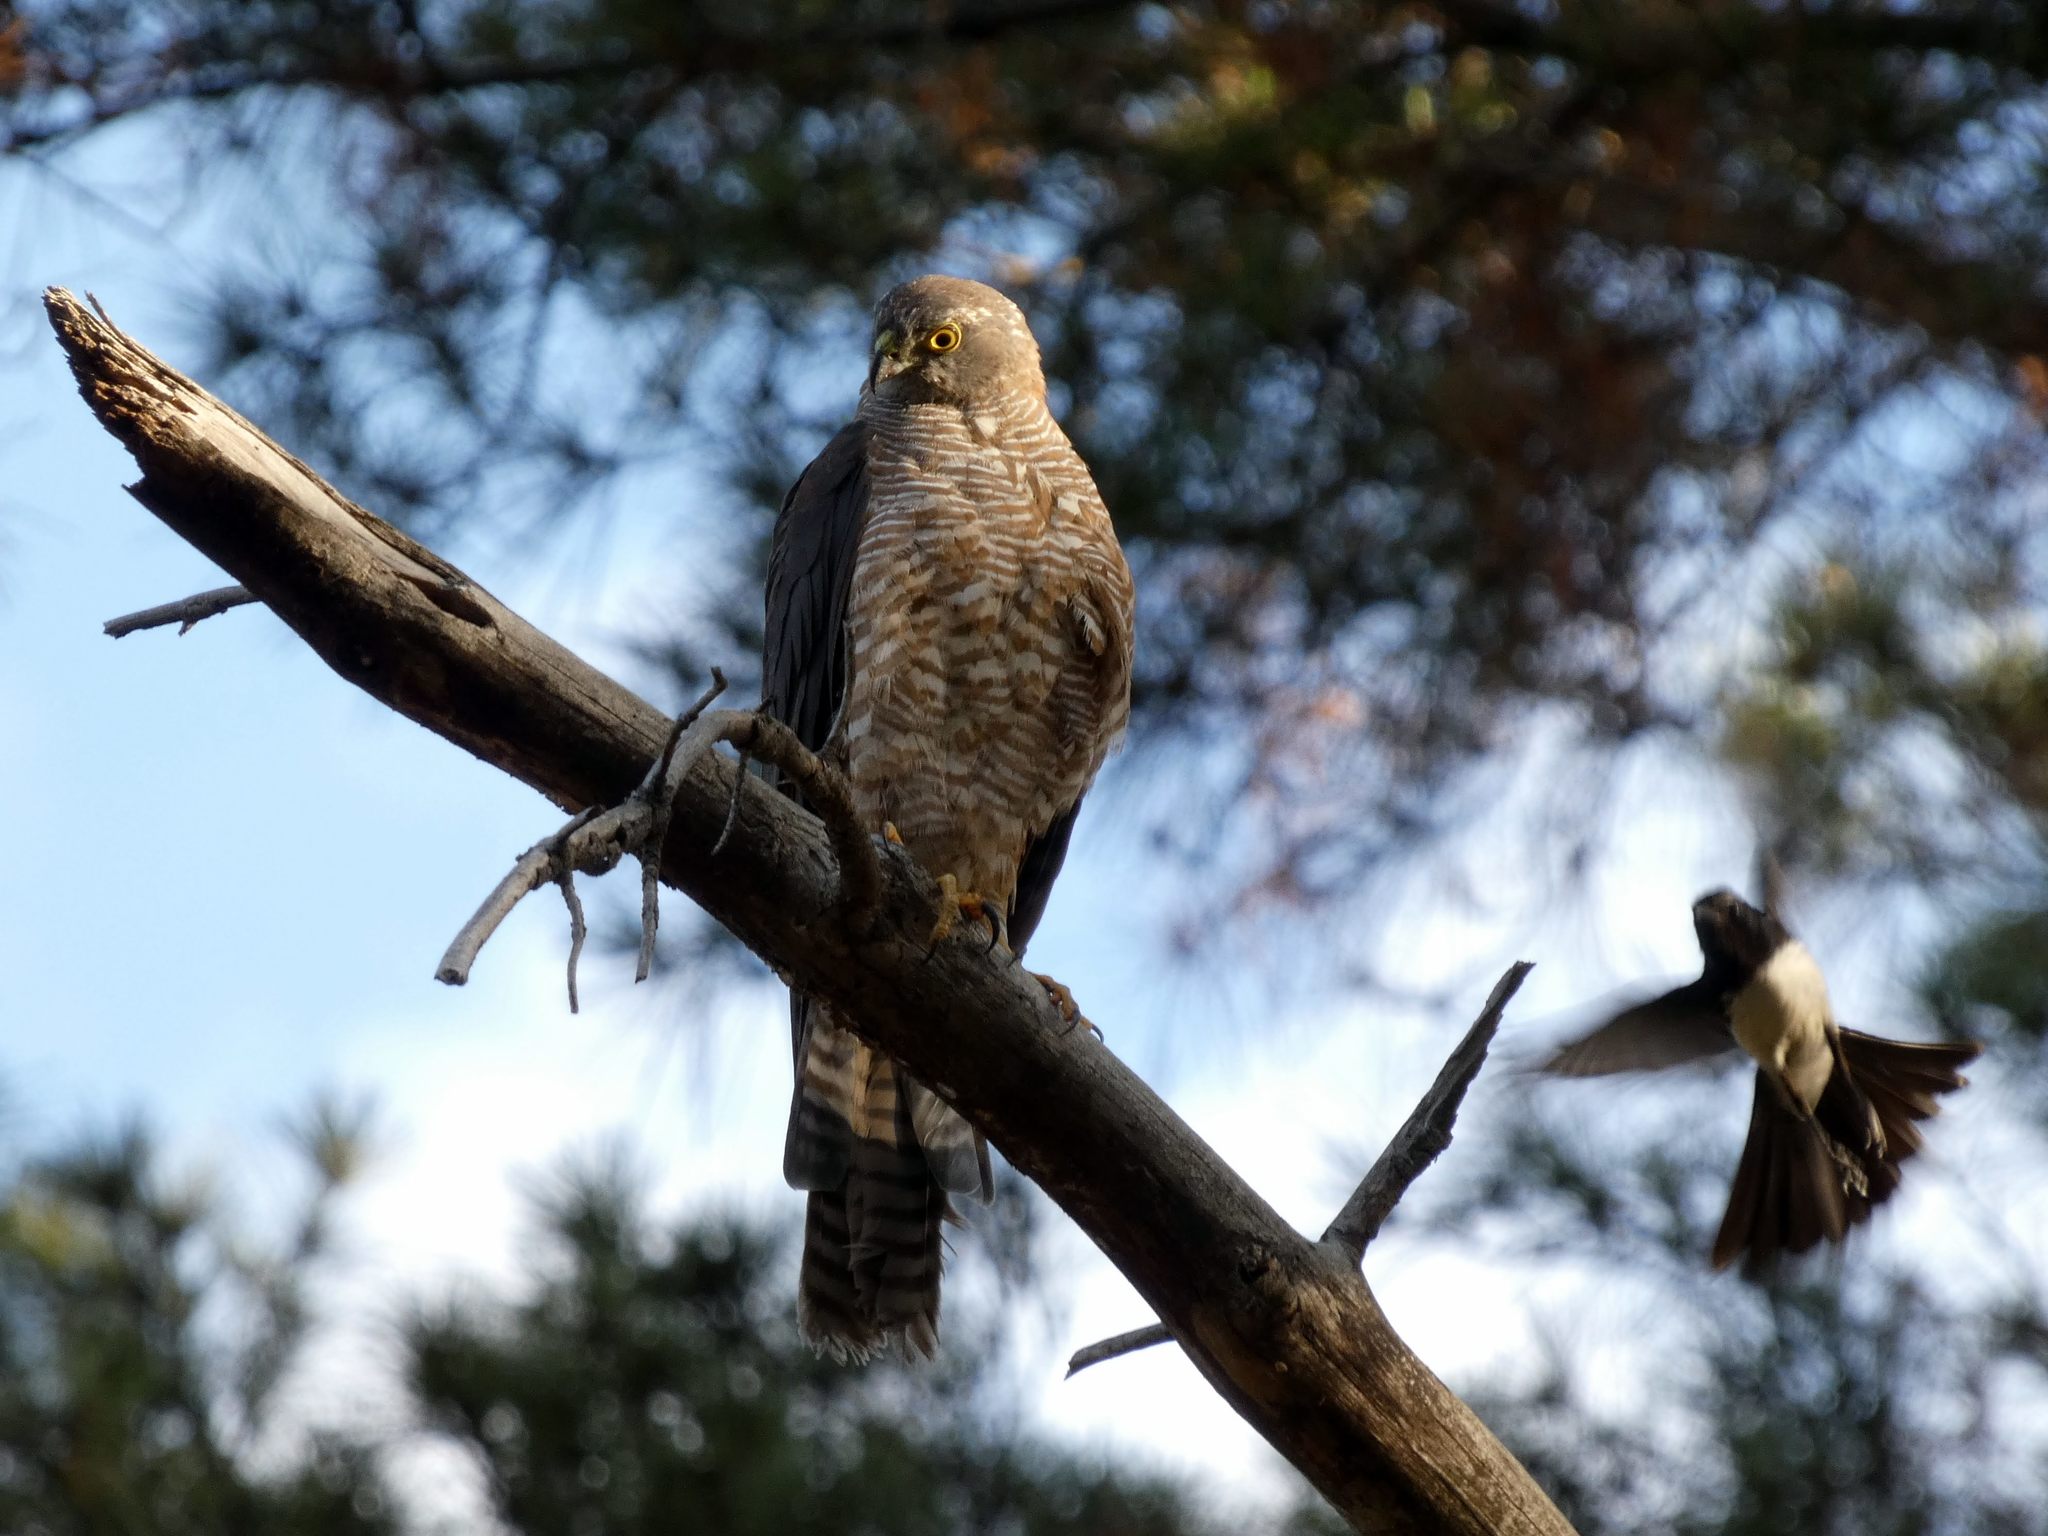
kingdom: Animalia
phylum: Chordata
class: Aves
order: Accipitriformes
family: Accipitridae
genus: Accipiter
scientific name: Accipiter fasciatus
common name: Brown goshawk
